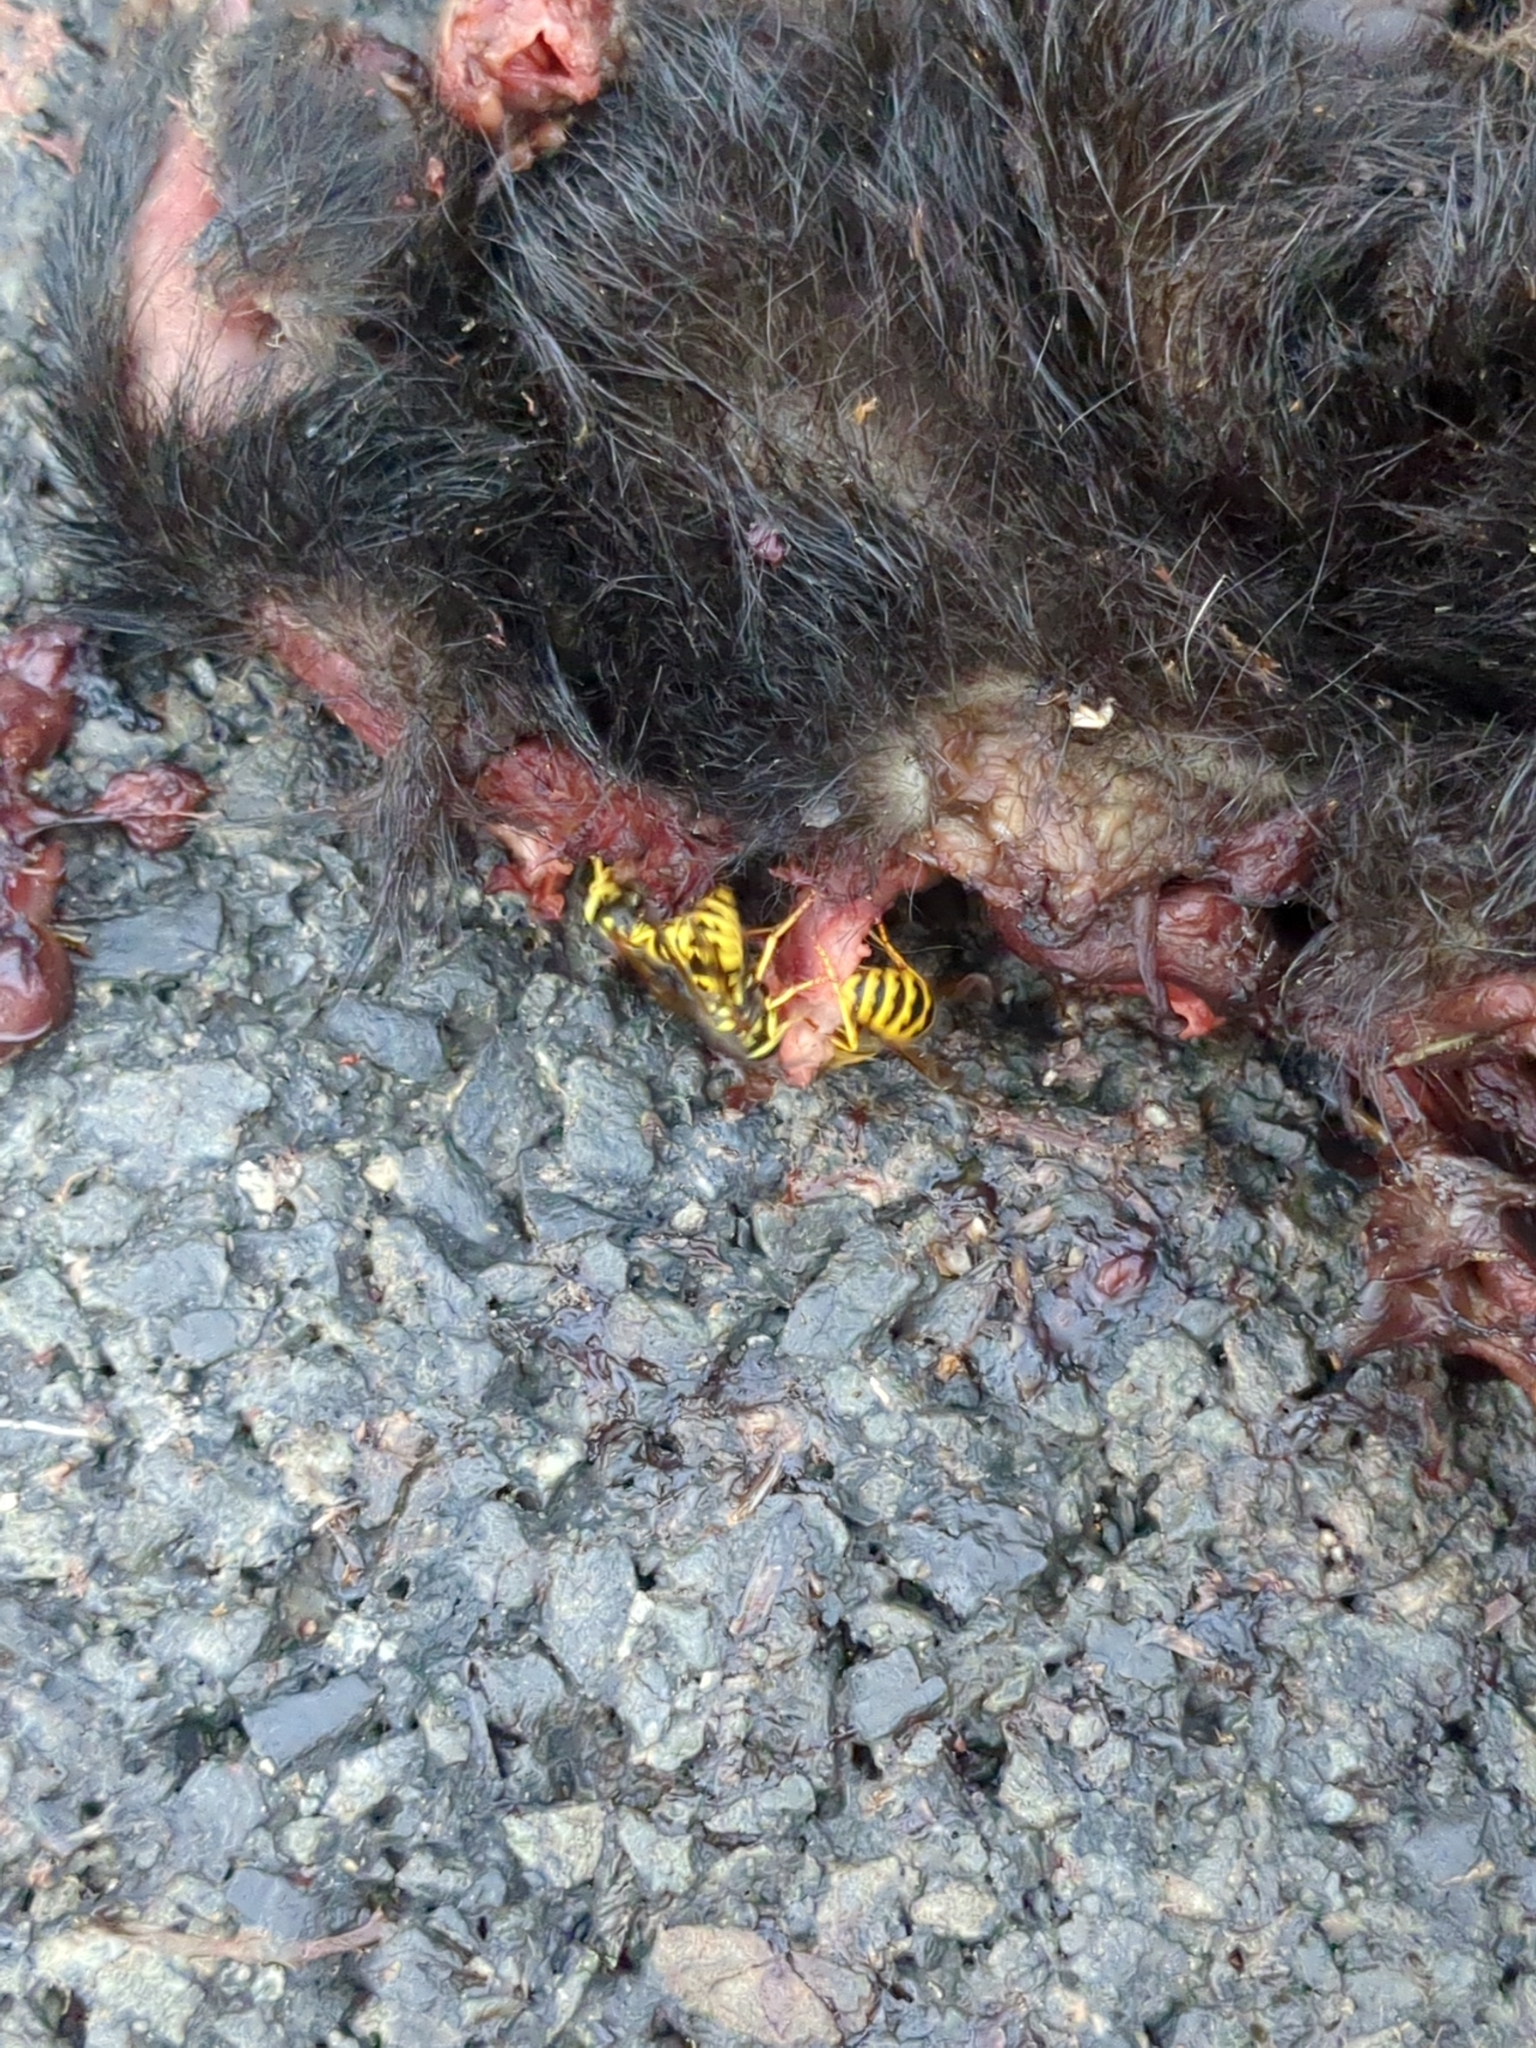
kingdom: Animalia
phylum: Chordata
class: Mammalia
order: Carnivora
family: Mephitidae
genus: Mephitis
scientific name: Mephitis mephitis
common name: Striped skunk
